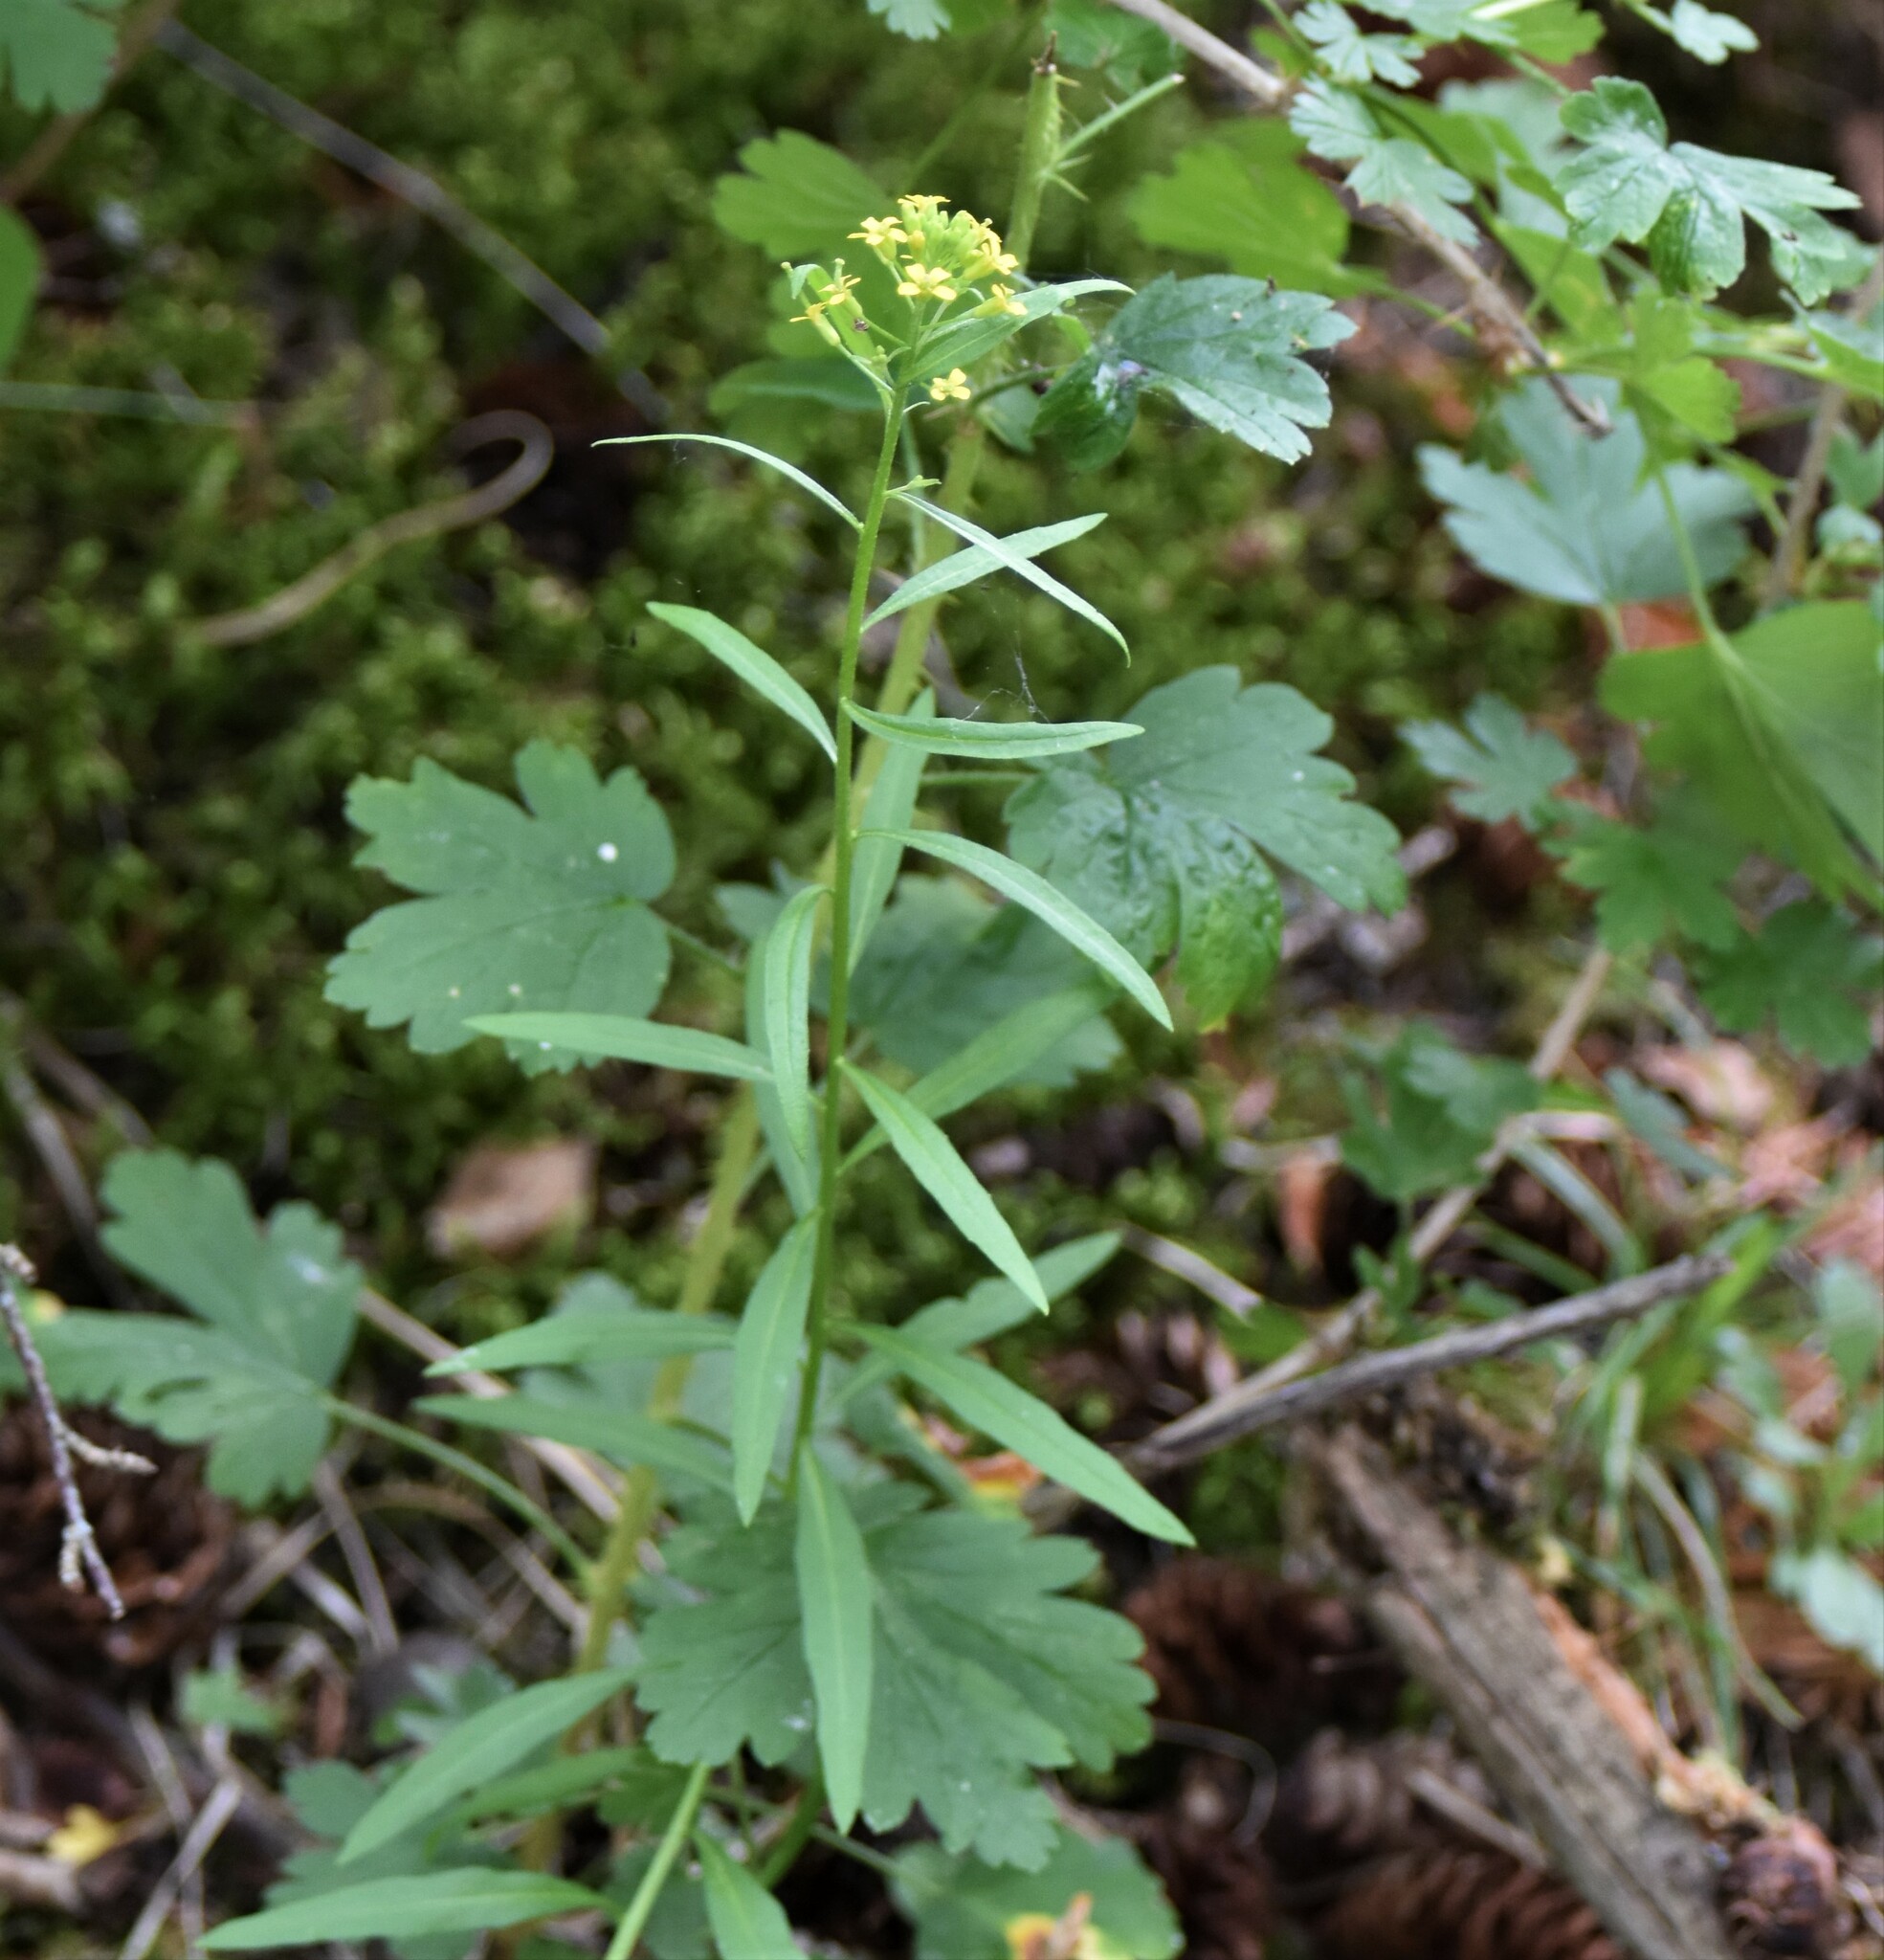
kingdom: Plantae
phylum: Tracheophyta
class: Magnoliopsida
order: Brassicales
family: Brassicaceae
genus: Erysimum
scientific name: Erysimum cheiranthoides
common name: Treacle mustard
